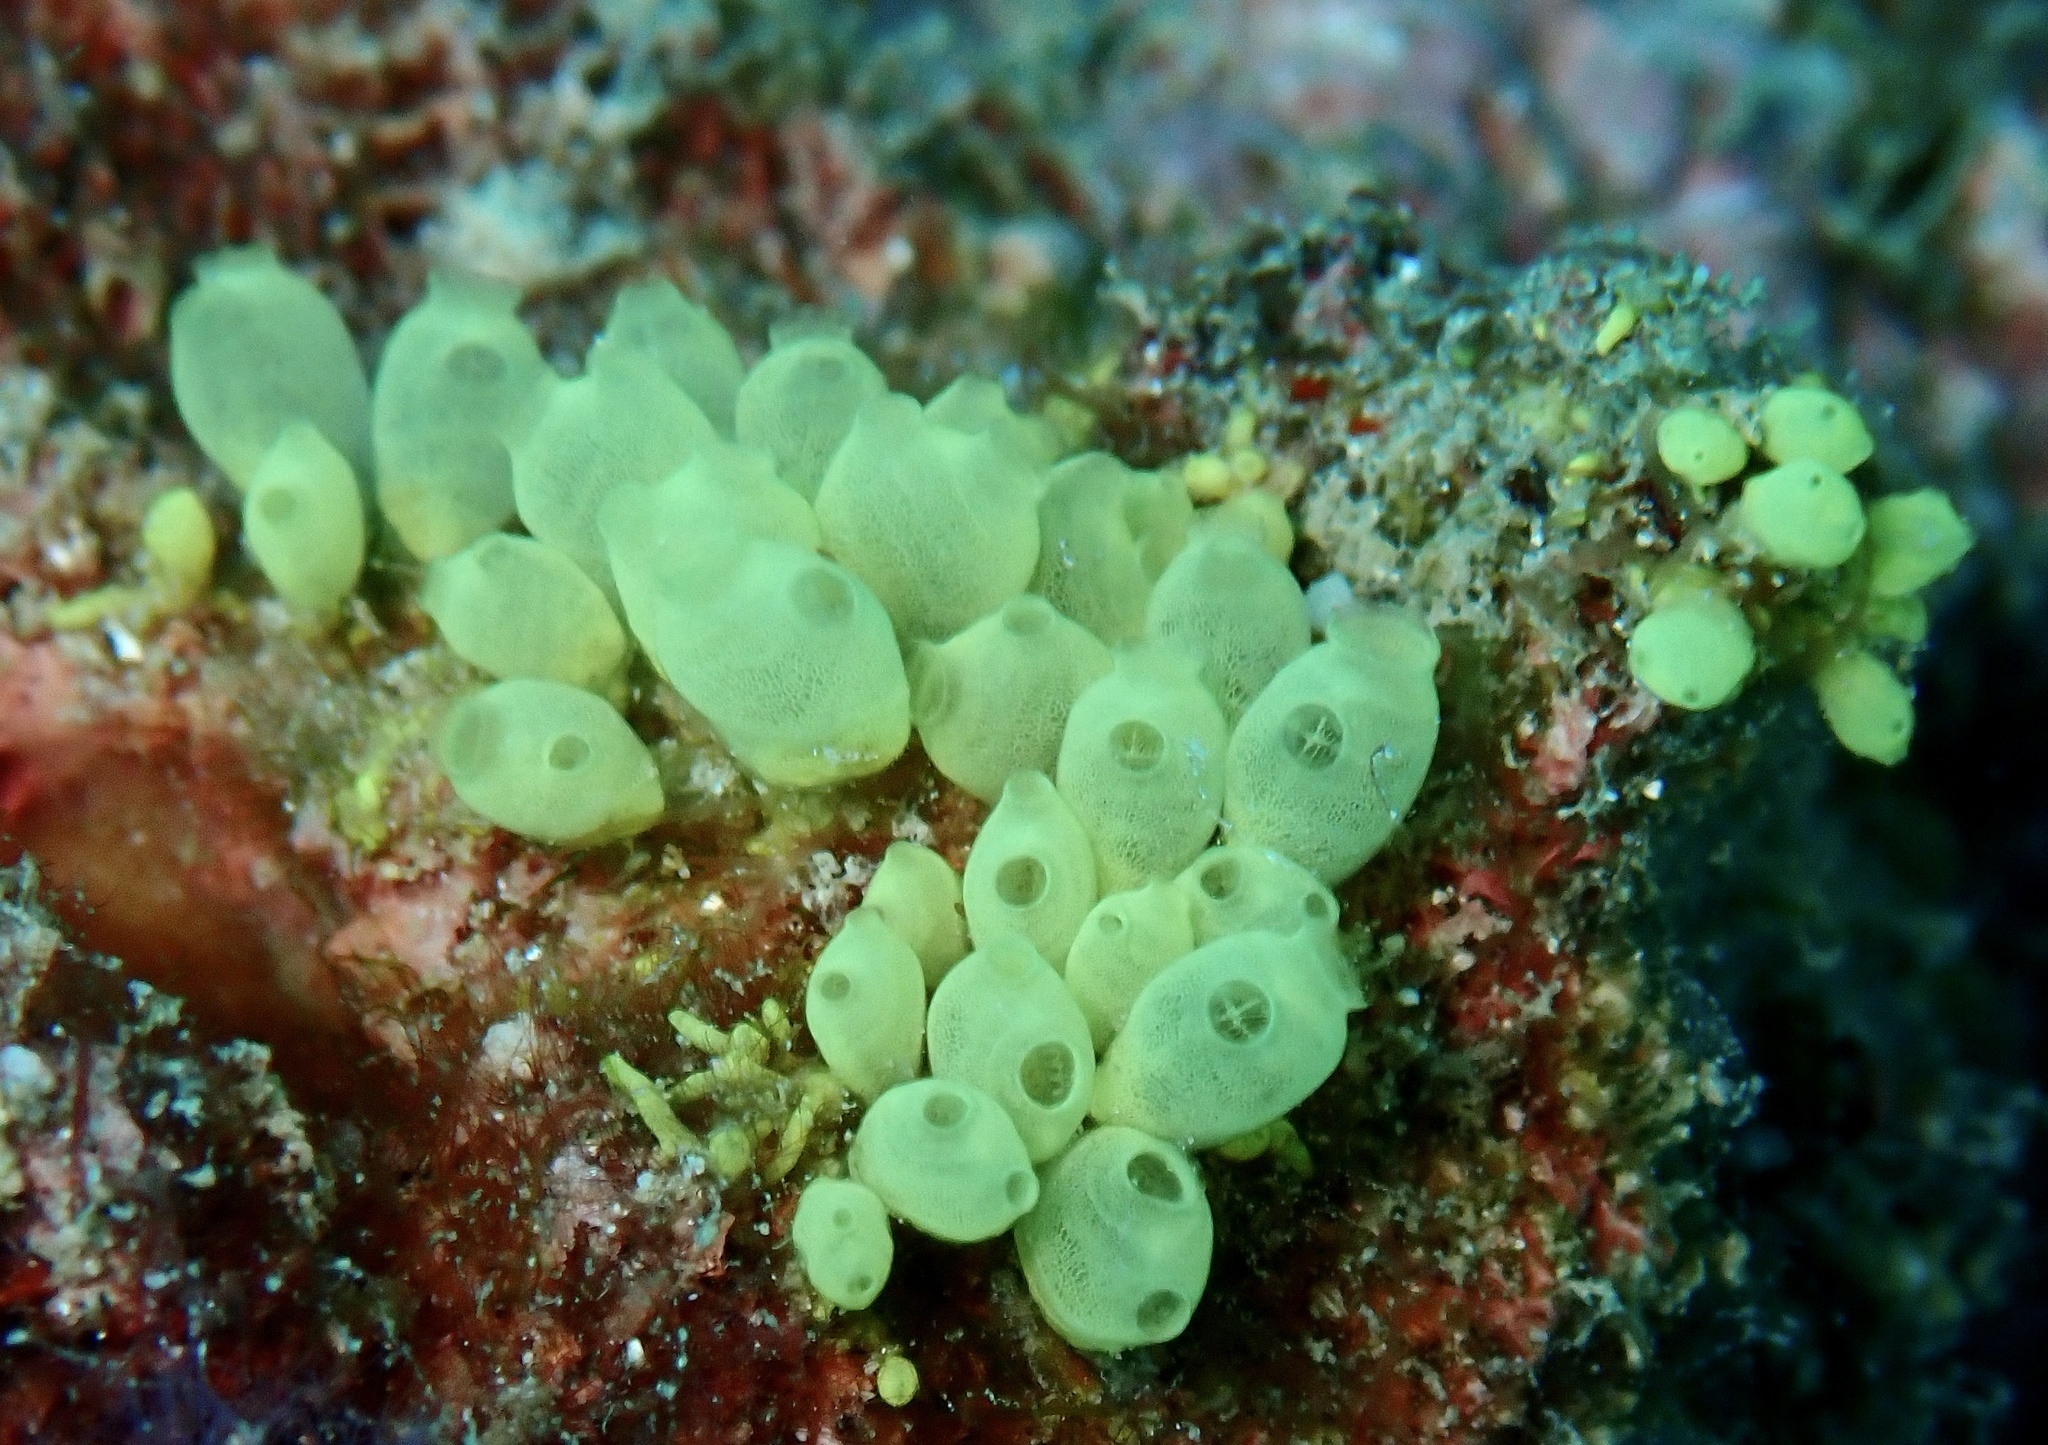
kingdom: Animalia
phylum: Chordata
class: Ascidiacea
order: Phlebobranchia
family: Perophoridae
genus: Perophora
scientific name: Perophora modificata
